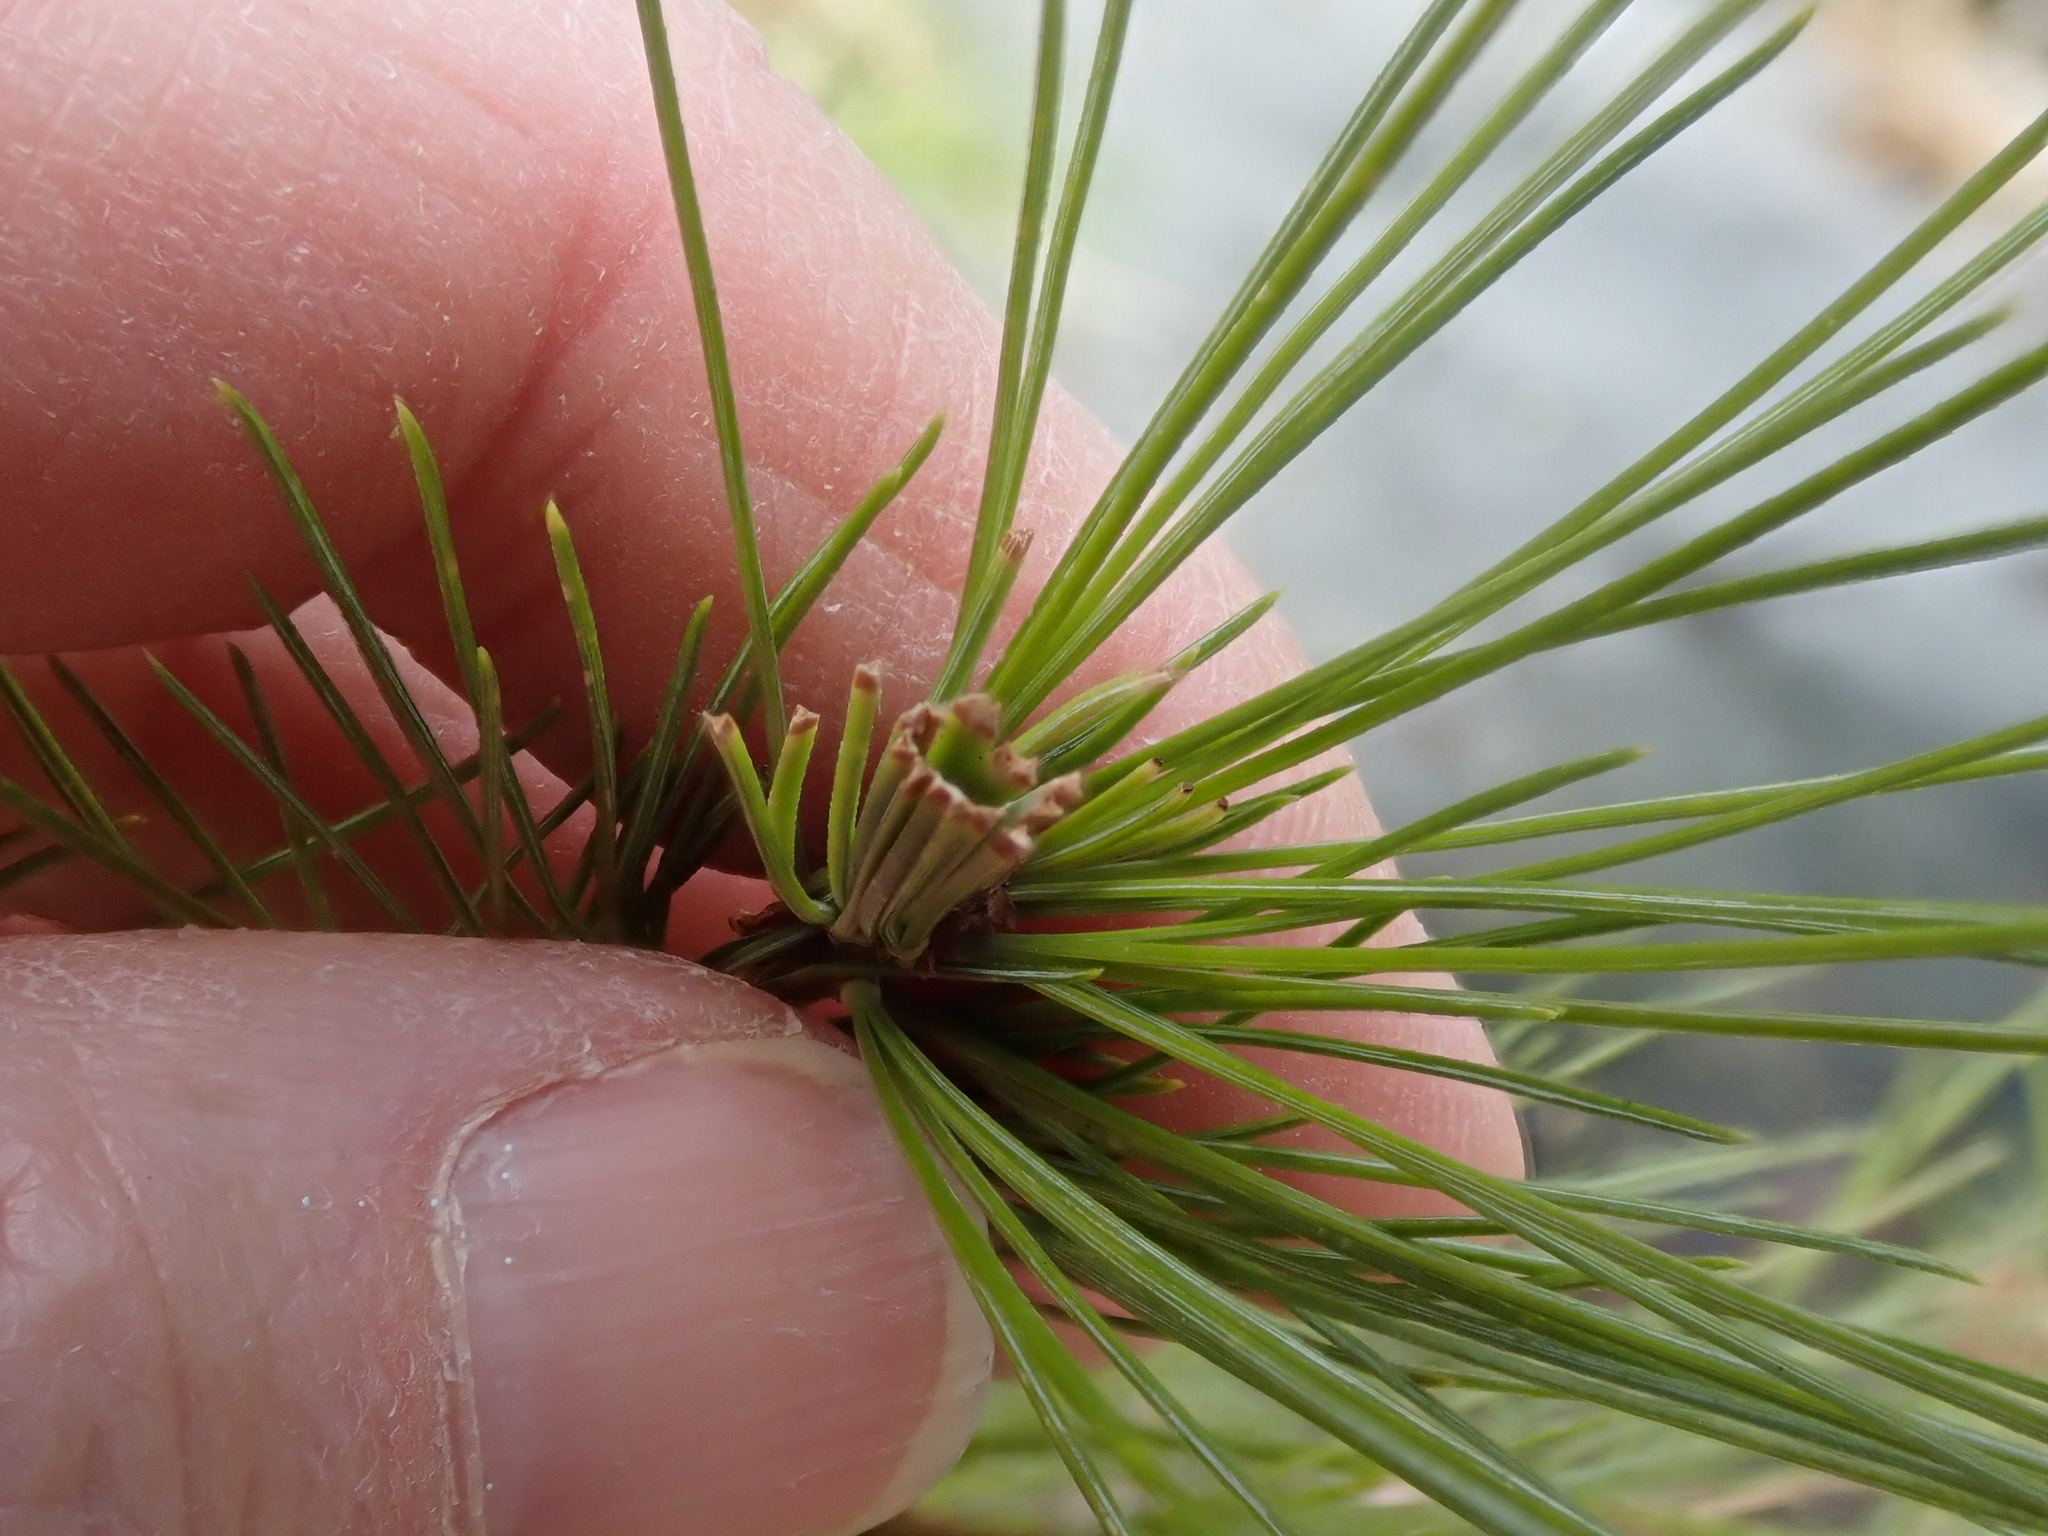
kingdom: Animalia
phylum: Arthropoda
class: Insecta
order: Lepidoptera
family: Tortricidae
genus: Argyrotaenia
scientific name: Argyrotaenia pinatubana
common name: Pine tube moth
